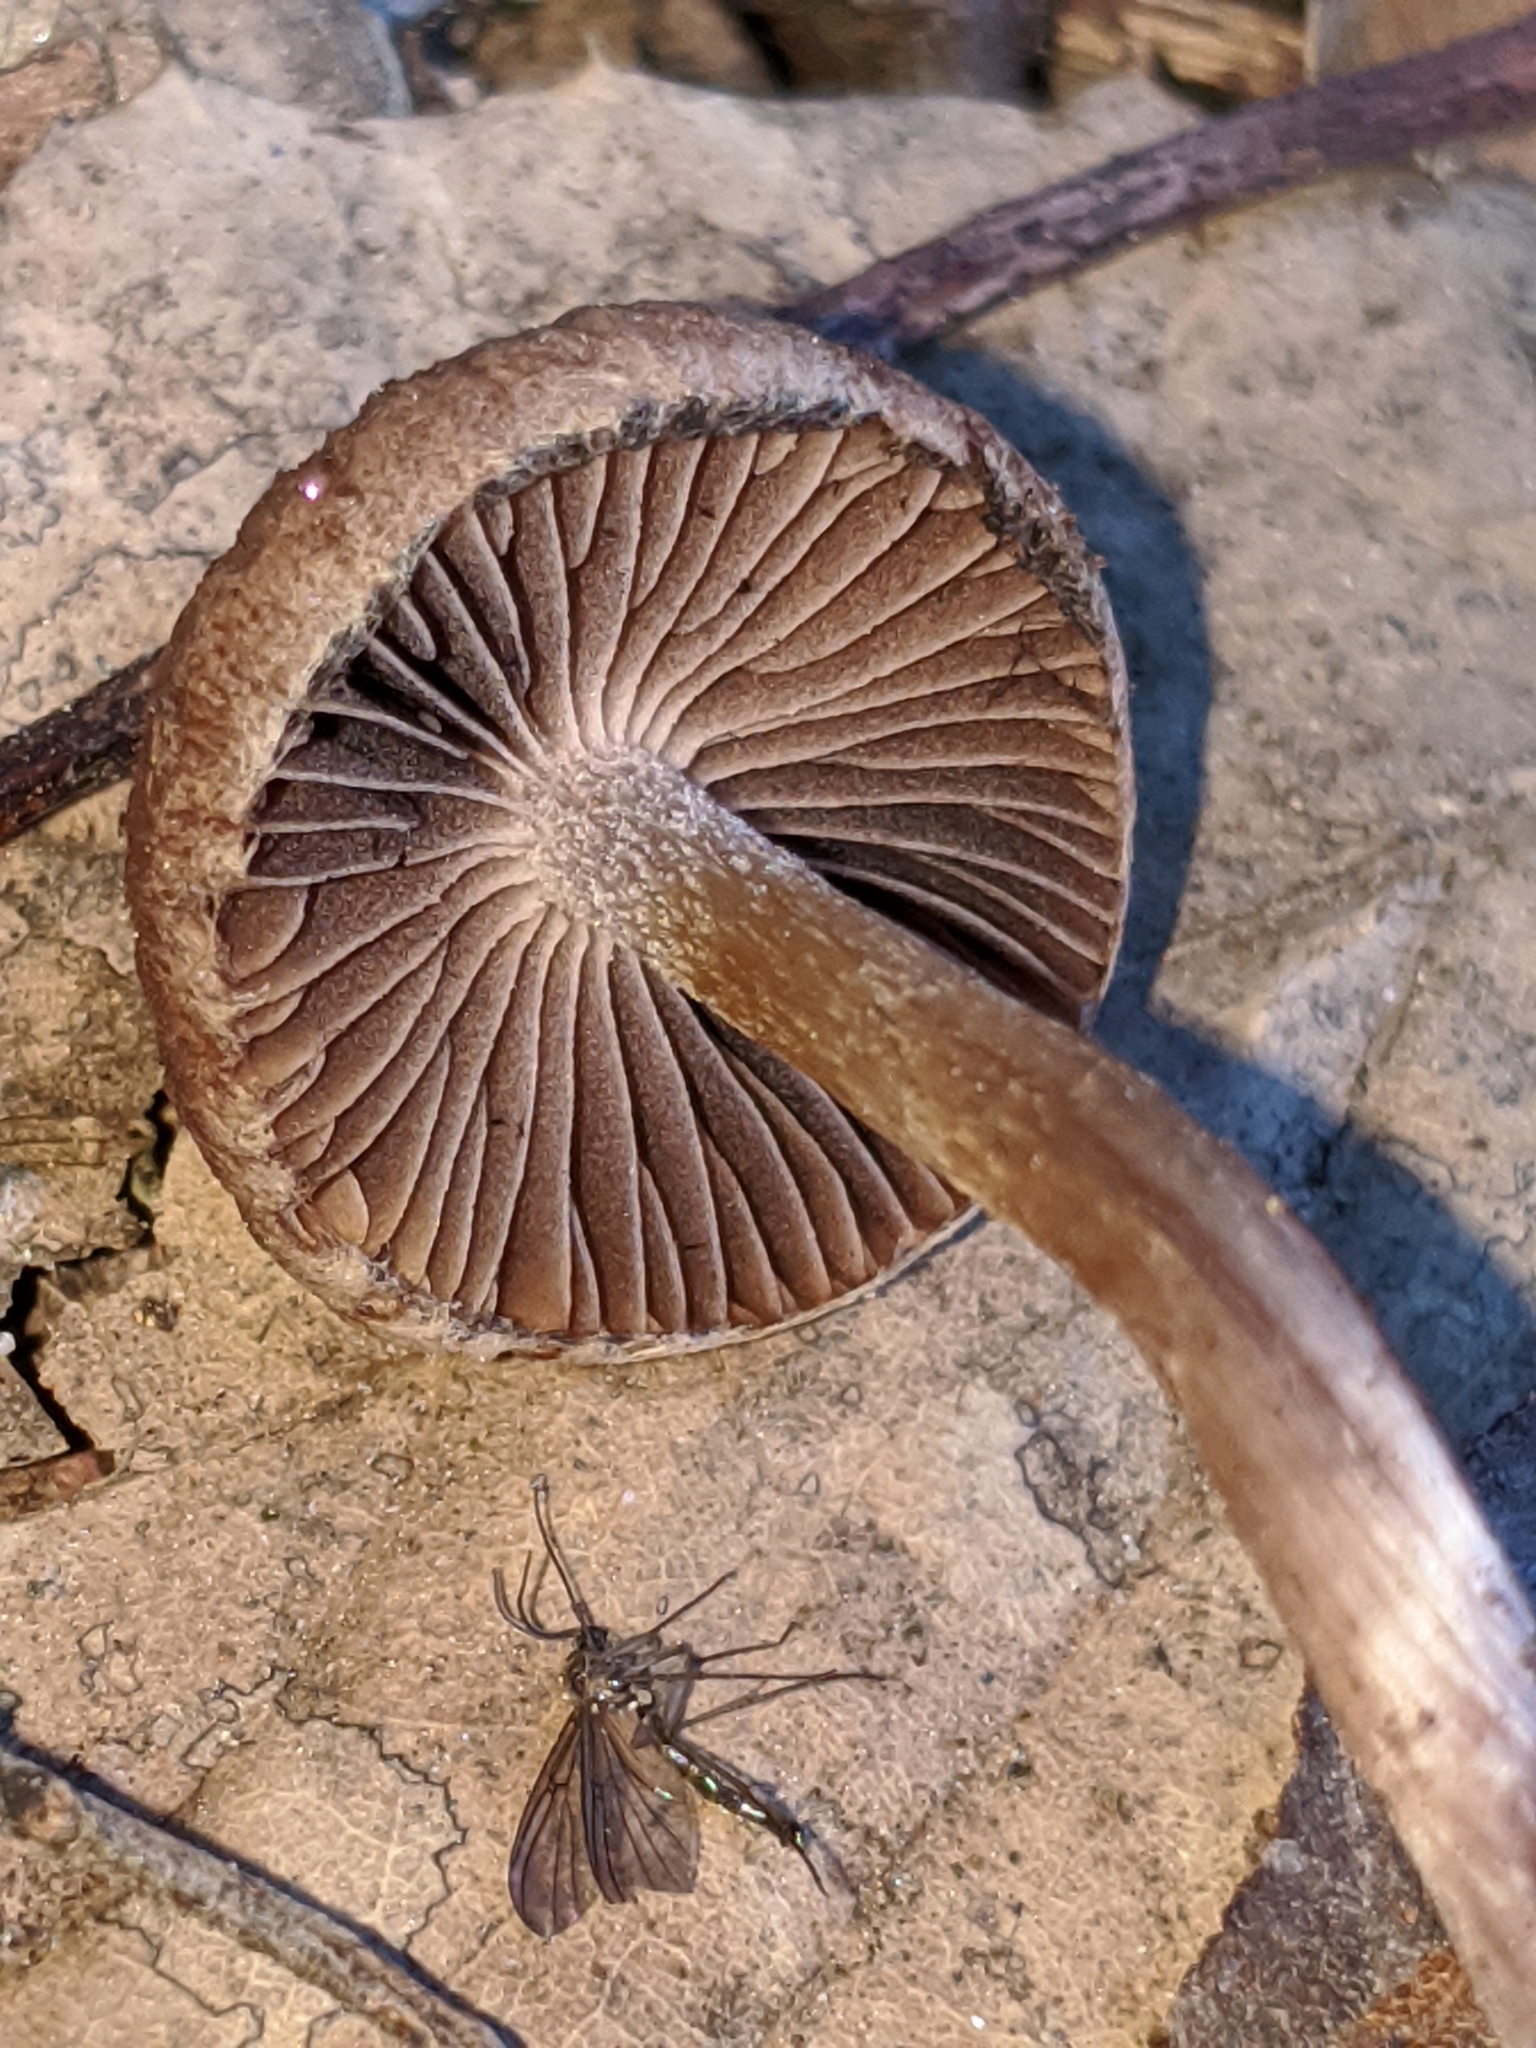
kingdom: Fungi
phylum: Basidiomycota
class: Agaricomycetes
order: Agaricales
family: Psathyrellaceae
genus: Psathyrella
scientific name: Psathyrella bipellis
